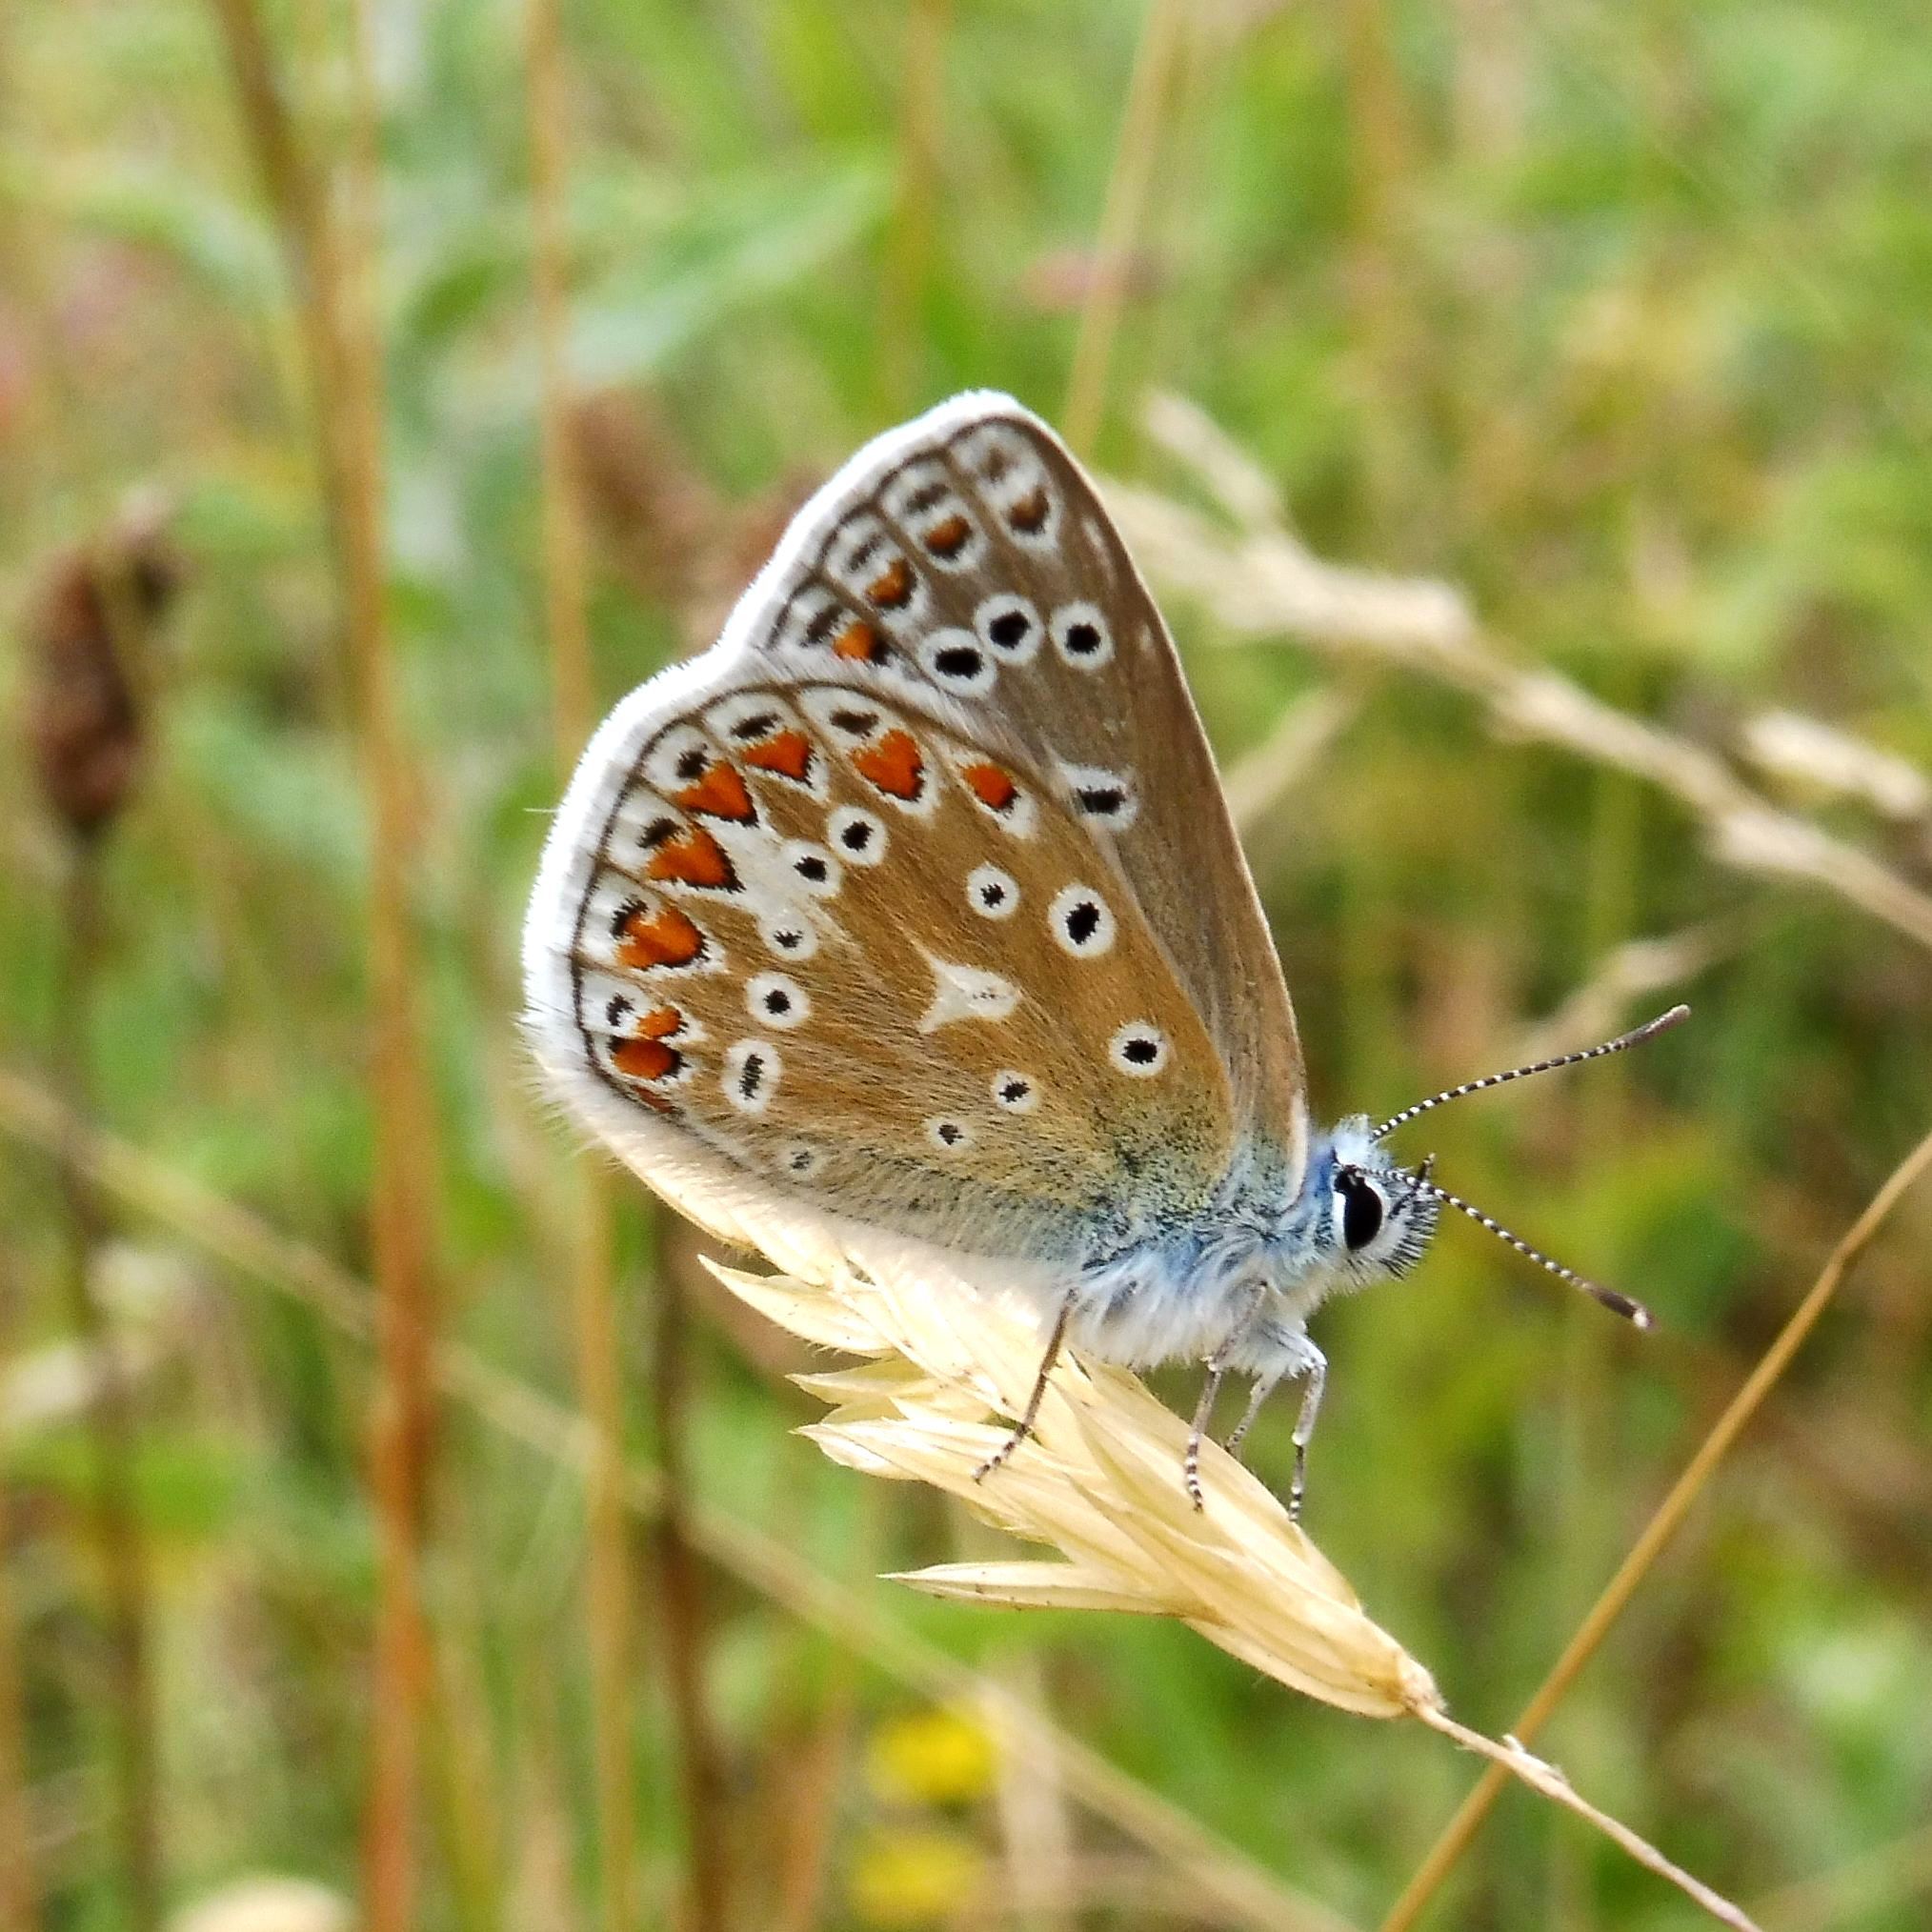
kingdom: Animalia
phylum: Arthropoda
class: Insecta
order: Lepidoptera
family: Lycaenidae
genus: Polyommatus
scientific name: Polyommatus icarus
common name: Common blue
